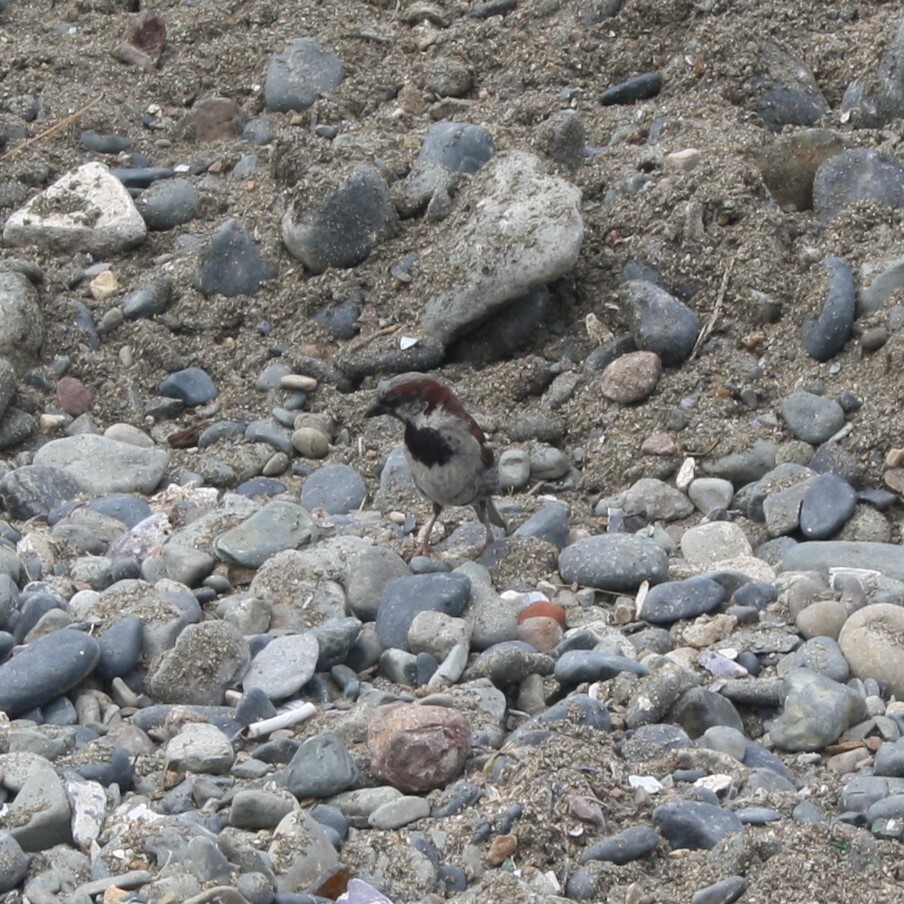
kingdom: Animalia
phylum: Chordata
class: Aves
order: Passeriformes
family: Passeridae
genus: Passer
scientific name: Passer domesticus
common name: House sparrow
